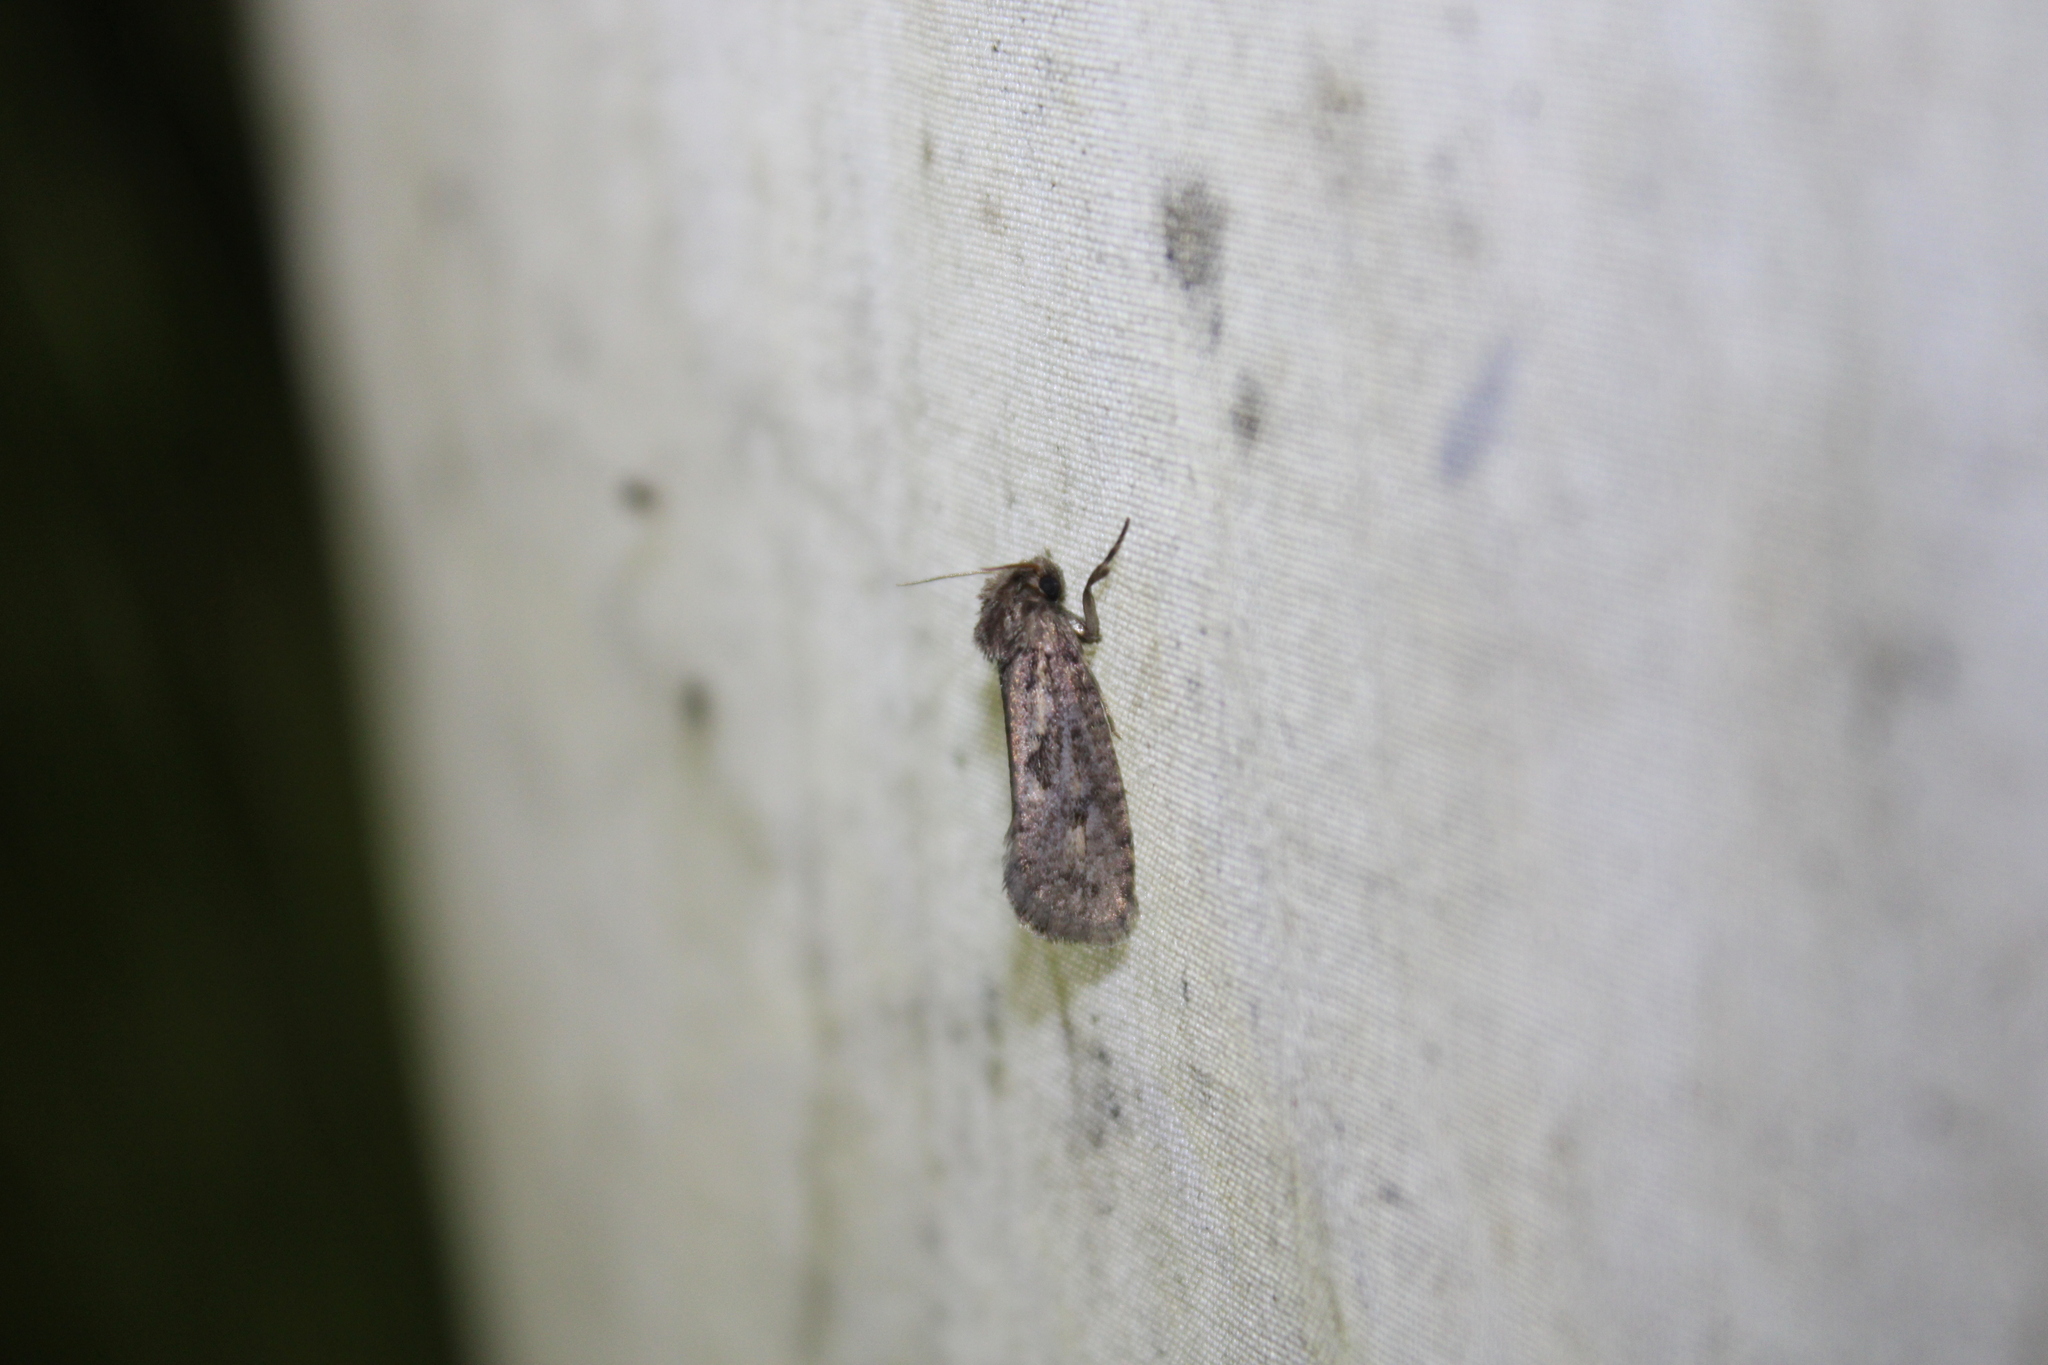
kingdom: Animalia
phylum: Arthropoda
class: Insecta
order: Lepidoptera
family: Tineidae
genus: Acrolophus
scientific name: Acrolophus popeanella
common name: Clemens' grass tubeworm moth
